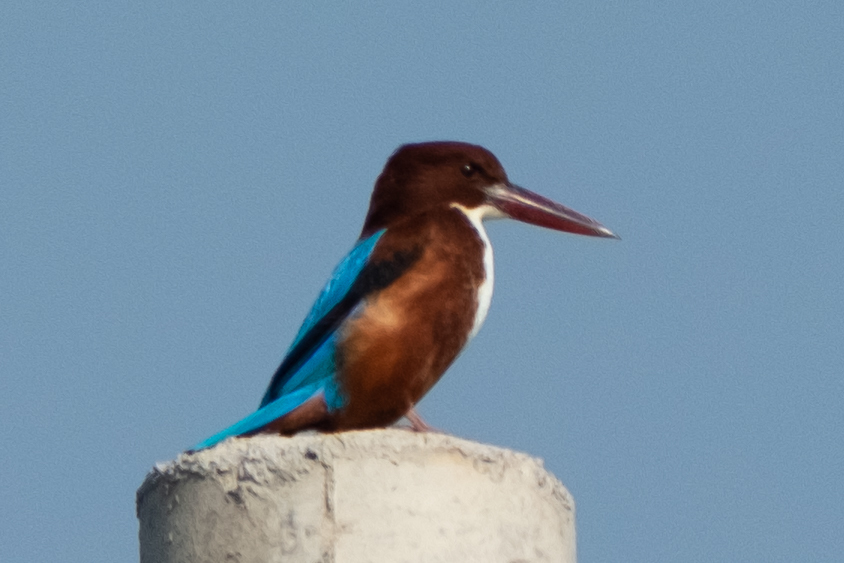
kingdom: Animalia
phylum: Chordata
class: Aves
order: Coraciiformes
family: Alcedinidae
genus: Halcyon
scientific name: Halcyon smyrnensis
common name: White-throated kingfisher
